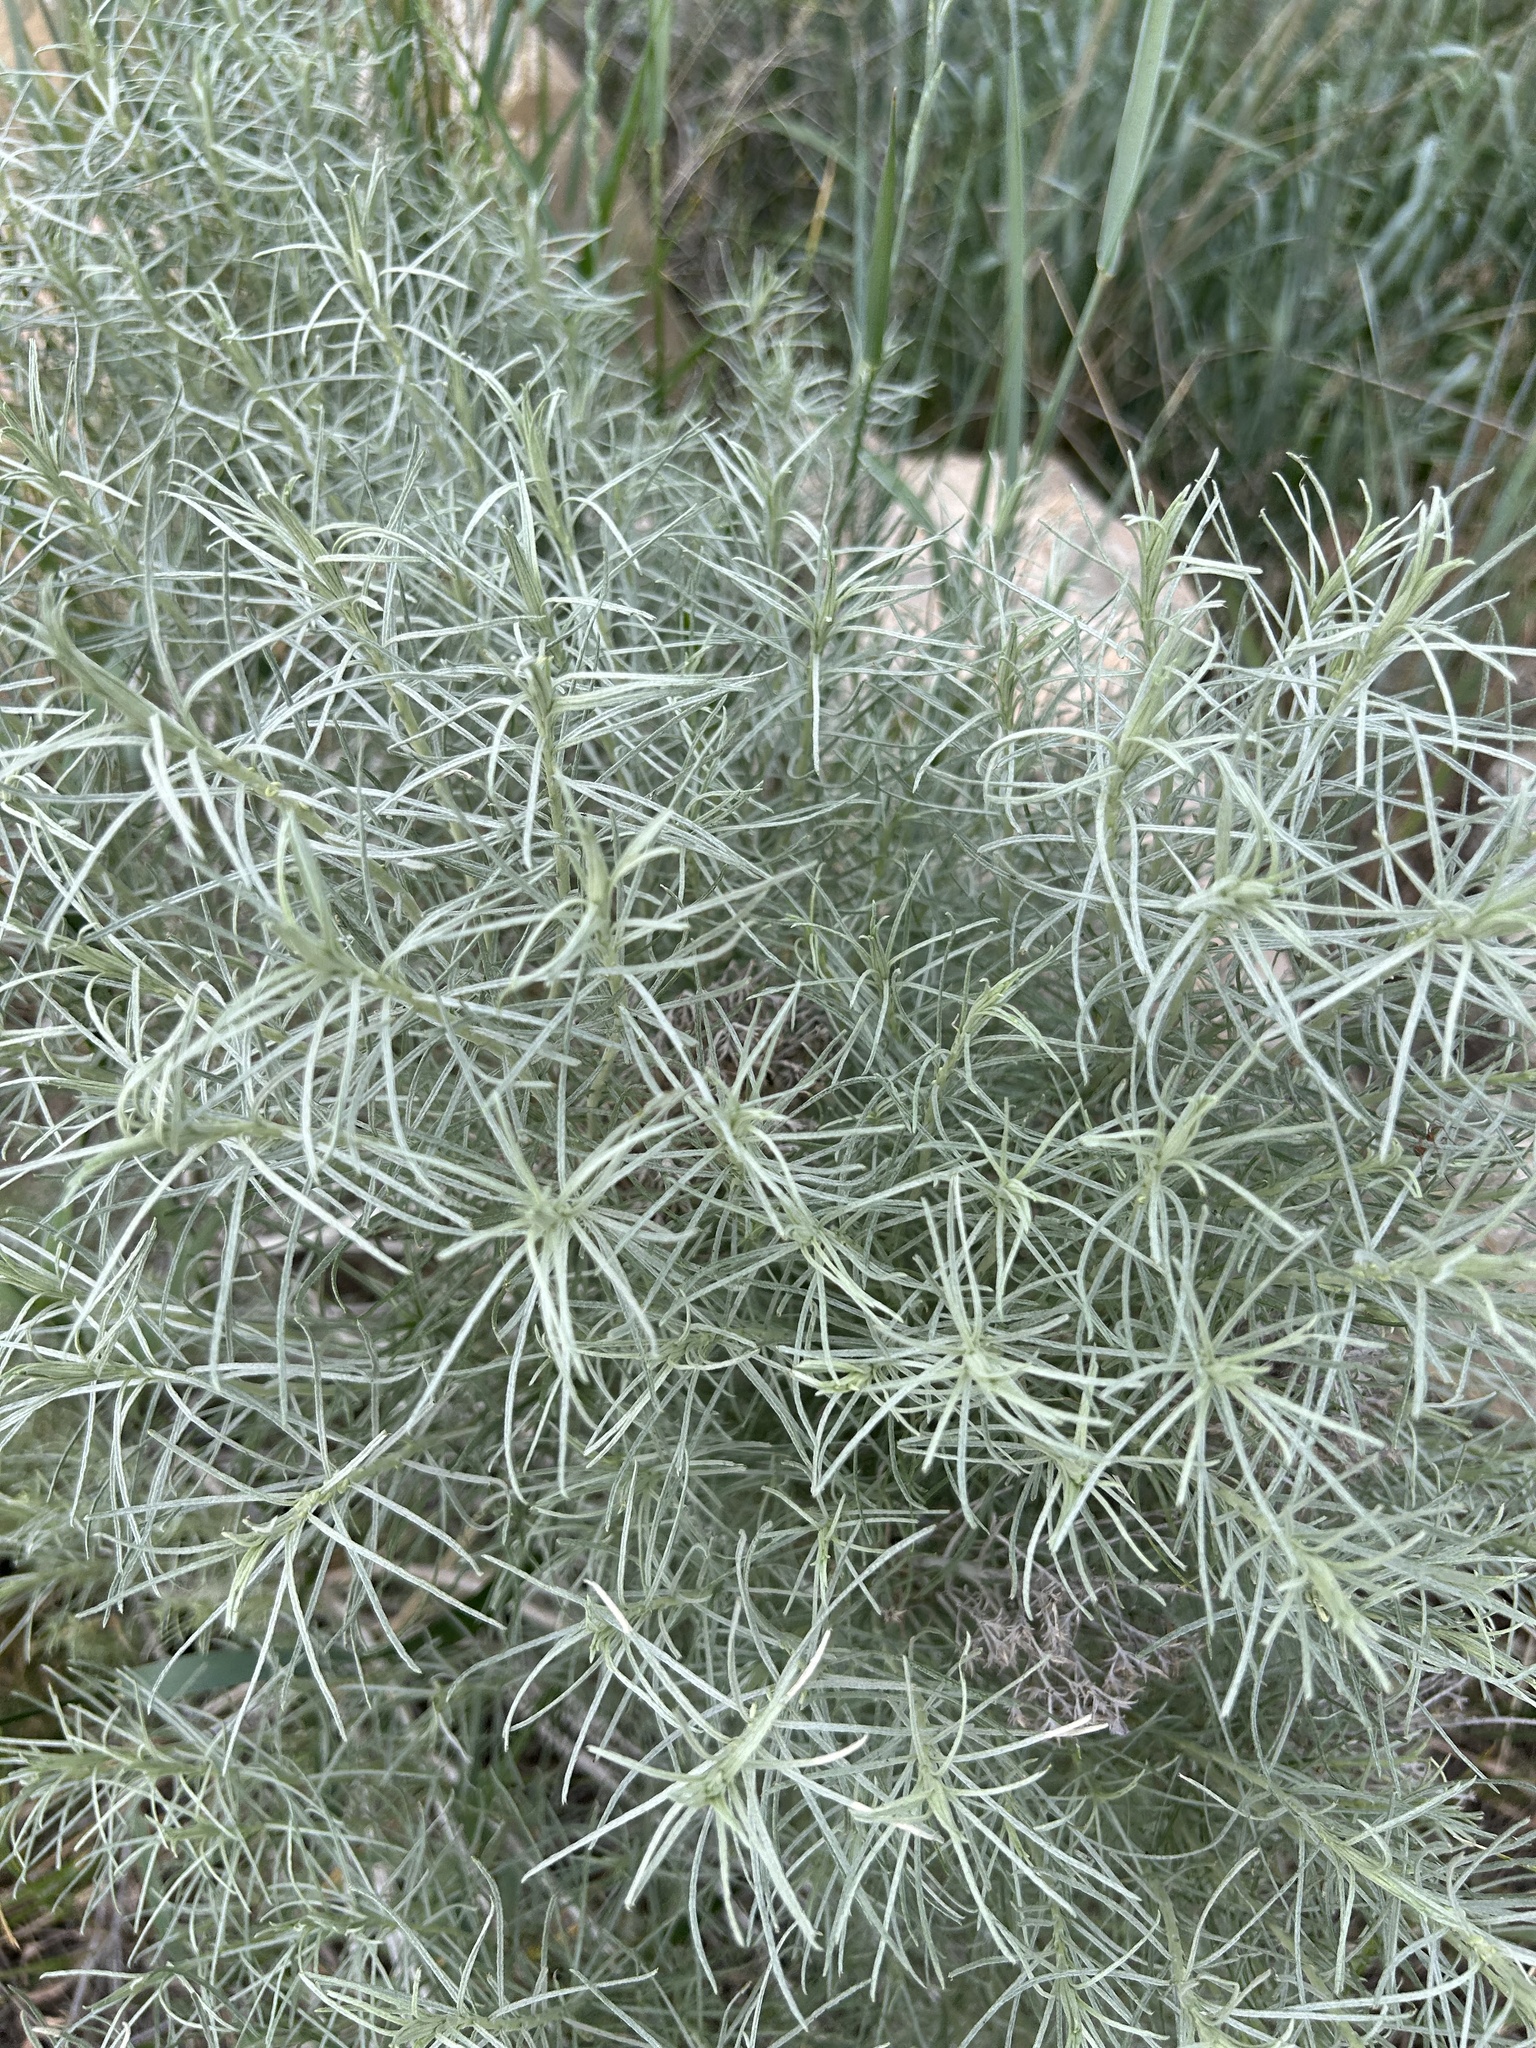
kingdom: Plantae
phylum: Tracheophyta
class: Magnoliopsida
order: Asterales
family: Asteraceae
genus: Ericameria
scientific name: Ericameria nauseosa
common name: Rubber rabbitbrush
